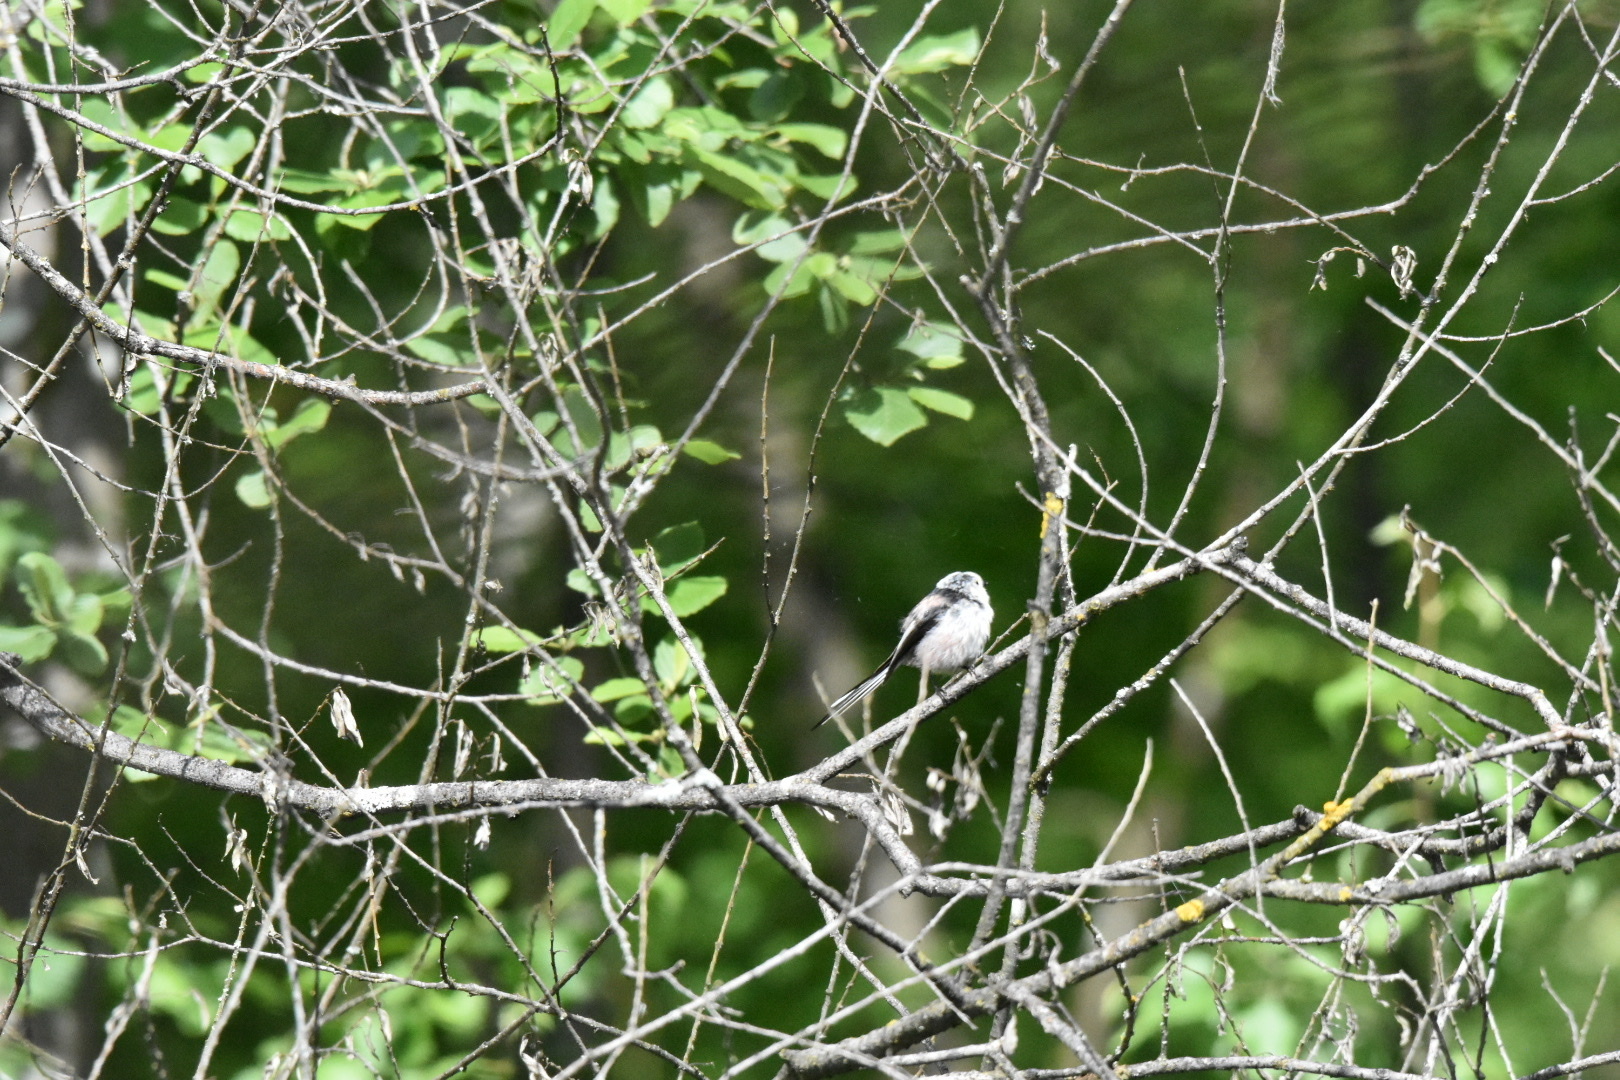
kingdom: Animalia
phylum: Chordata
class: Aves
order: Passeriformes
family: Aegithalidae
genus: Aegithalos
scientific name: Aegithalos caudatus
